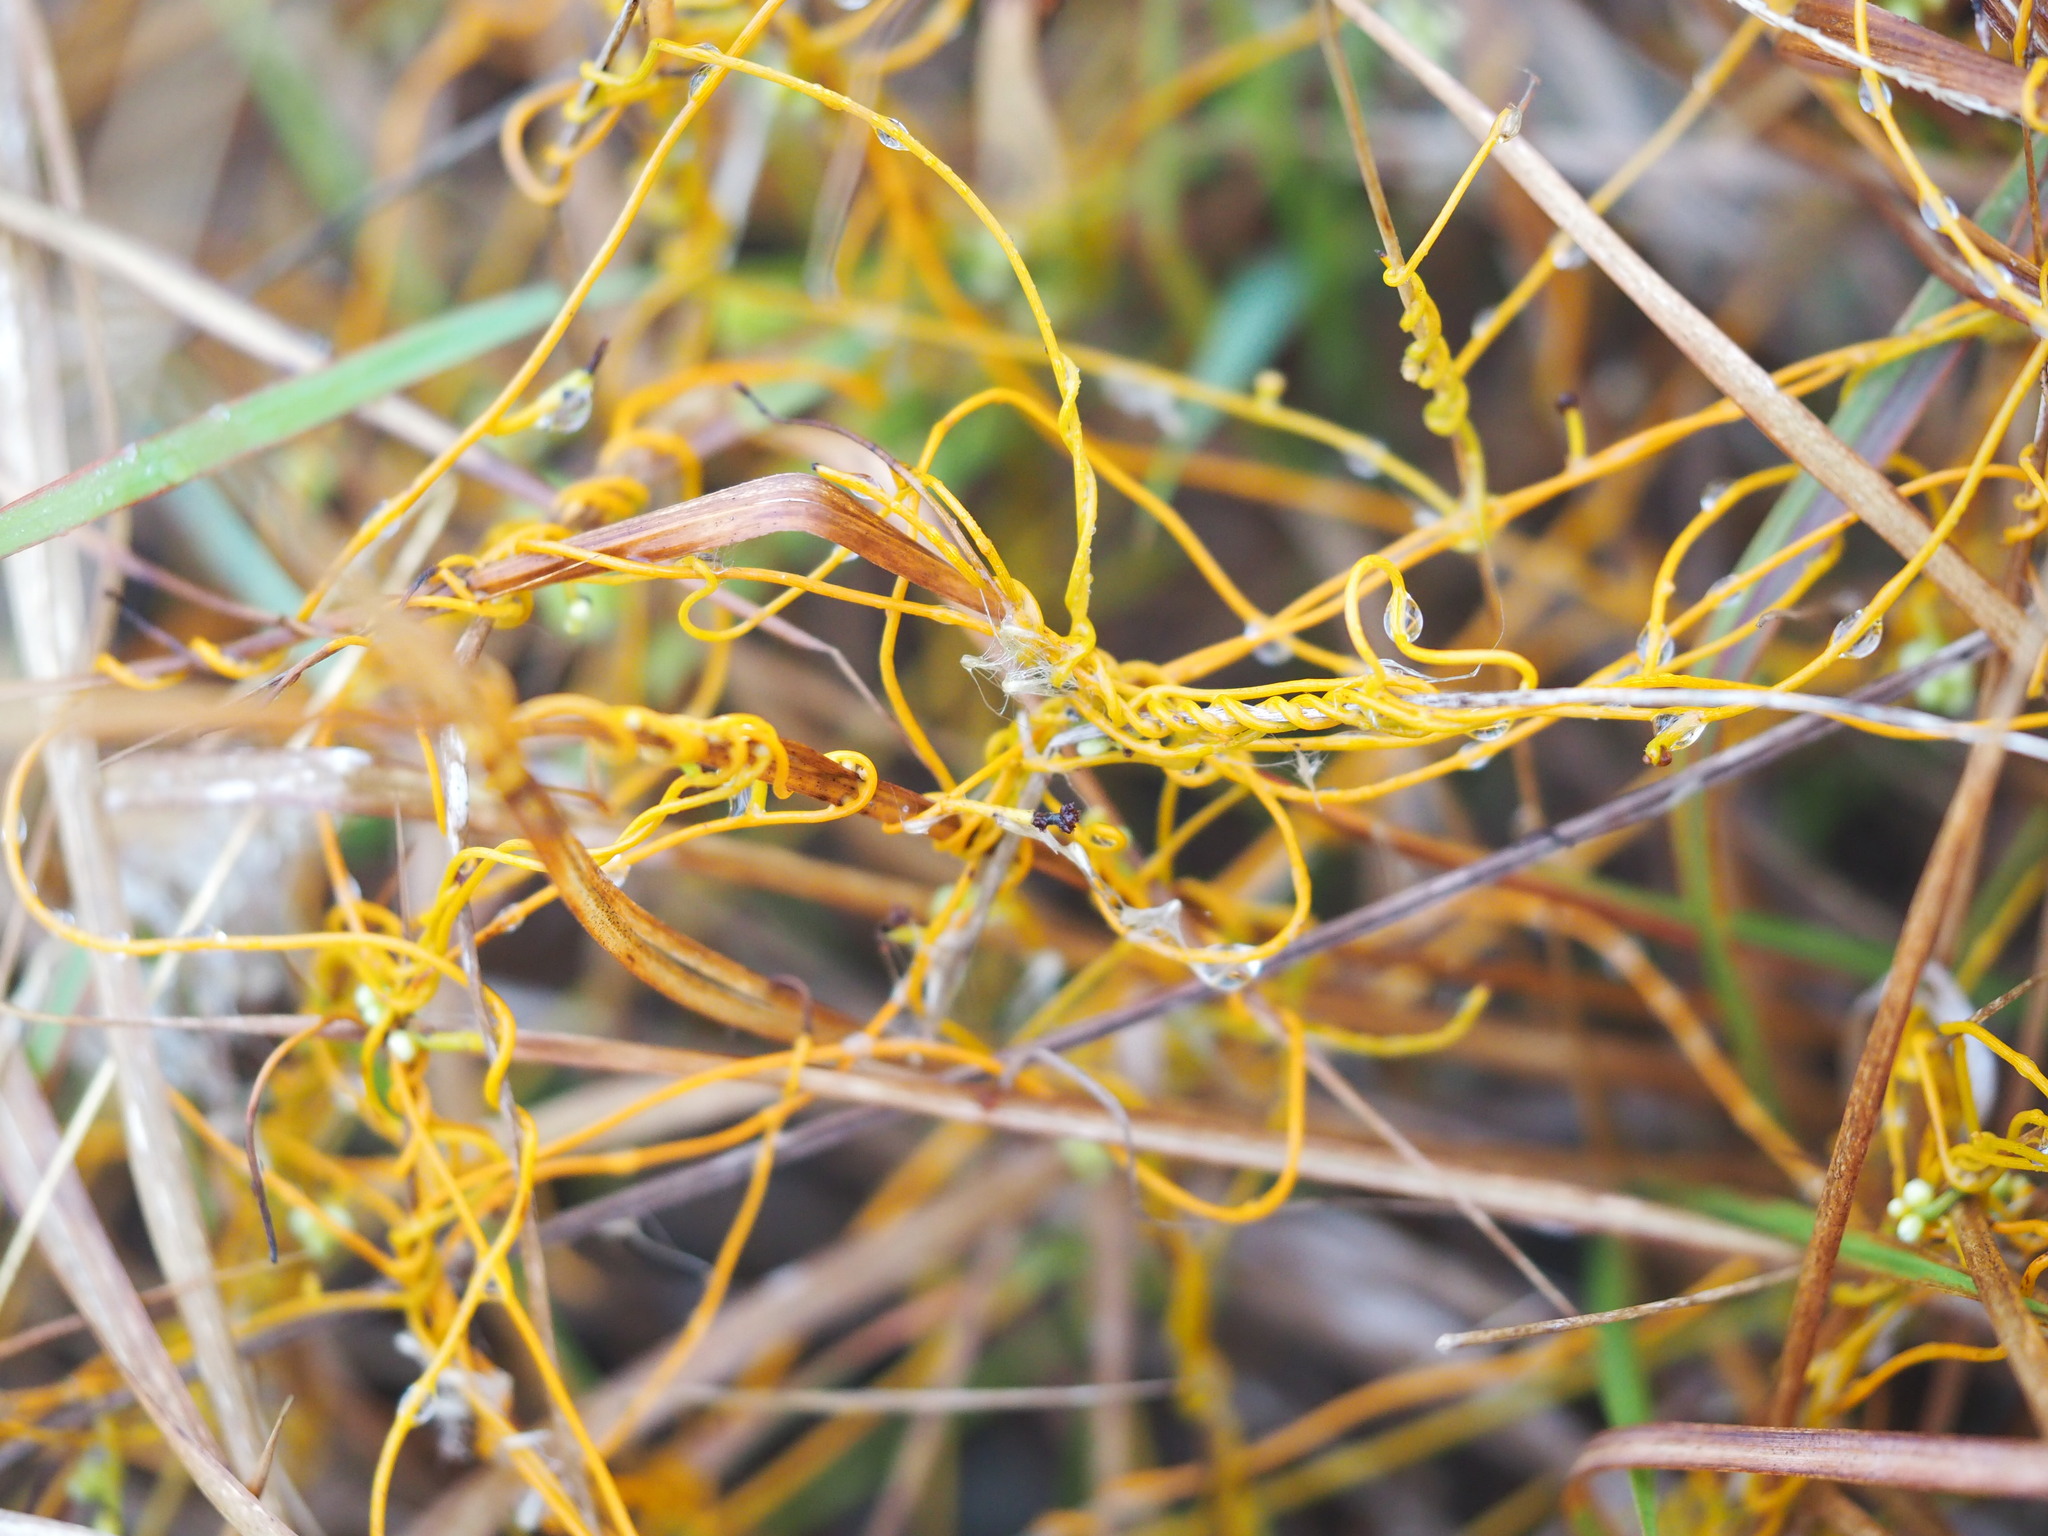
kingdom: Plantae
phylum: Tracheophyta
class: Magnoliopsida
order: Laurales
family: Lauraceae
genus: Cassytha
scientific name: Cassytha filiformis
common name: Dodder-laurel
